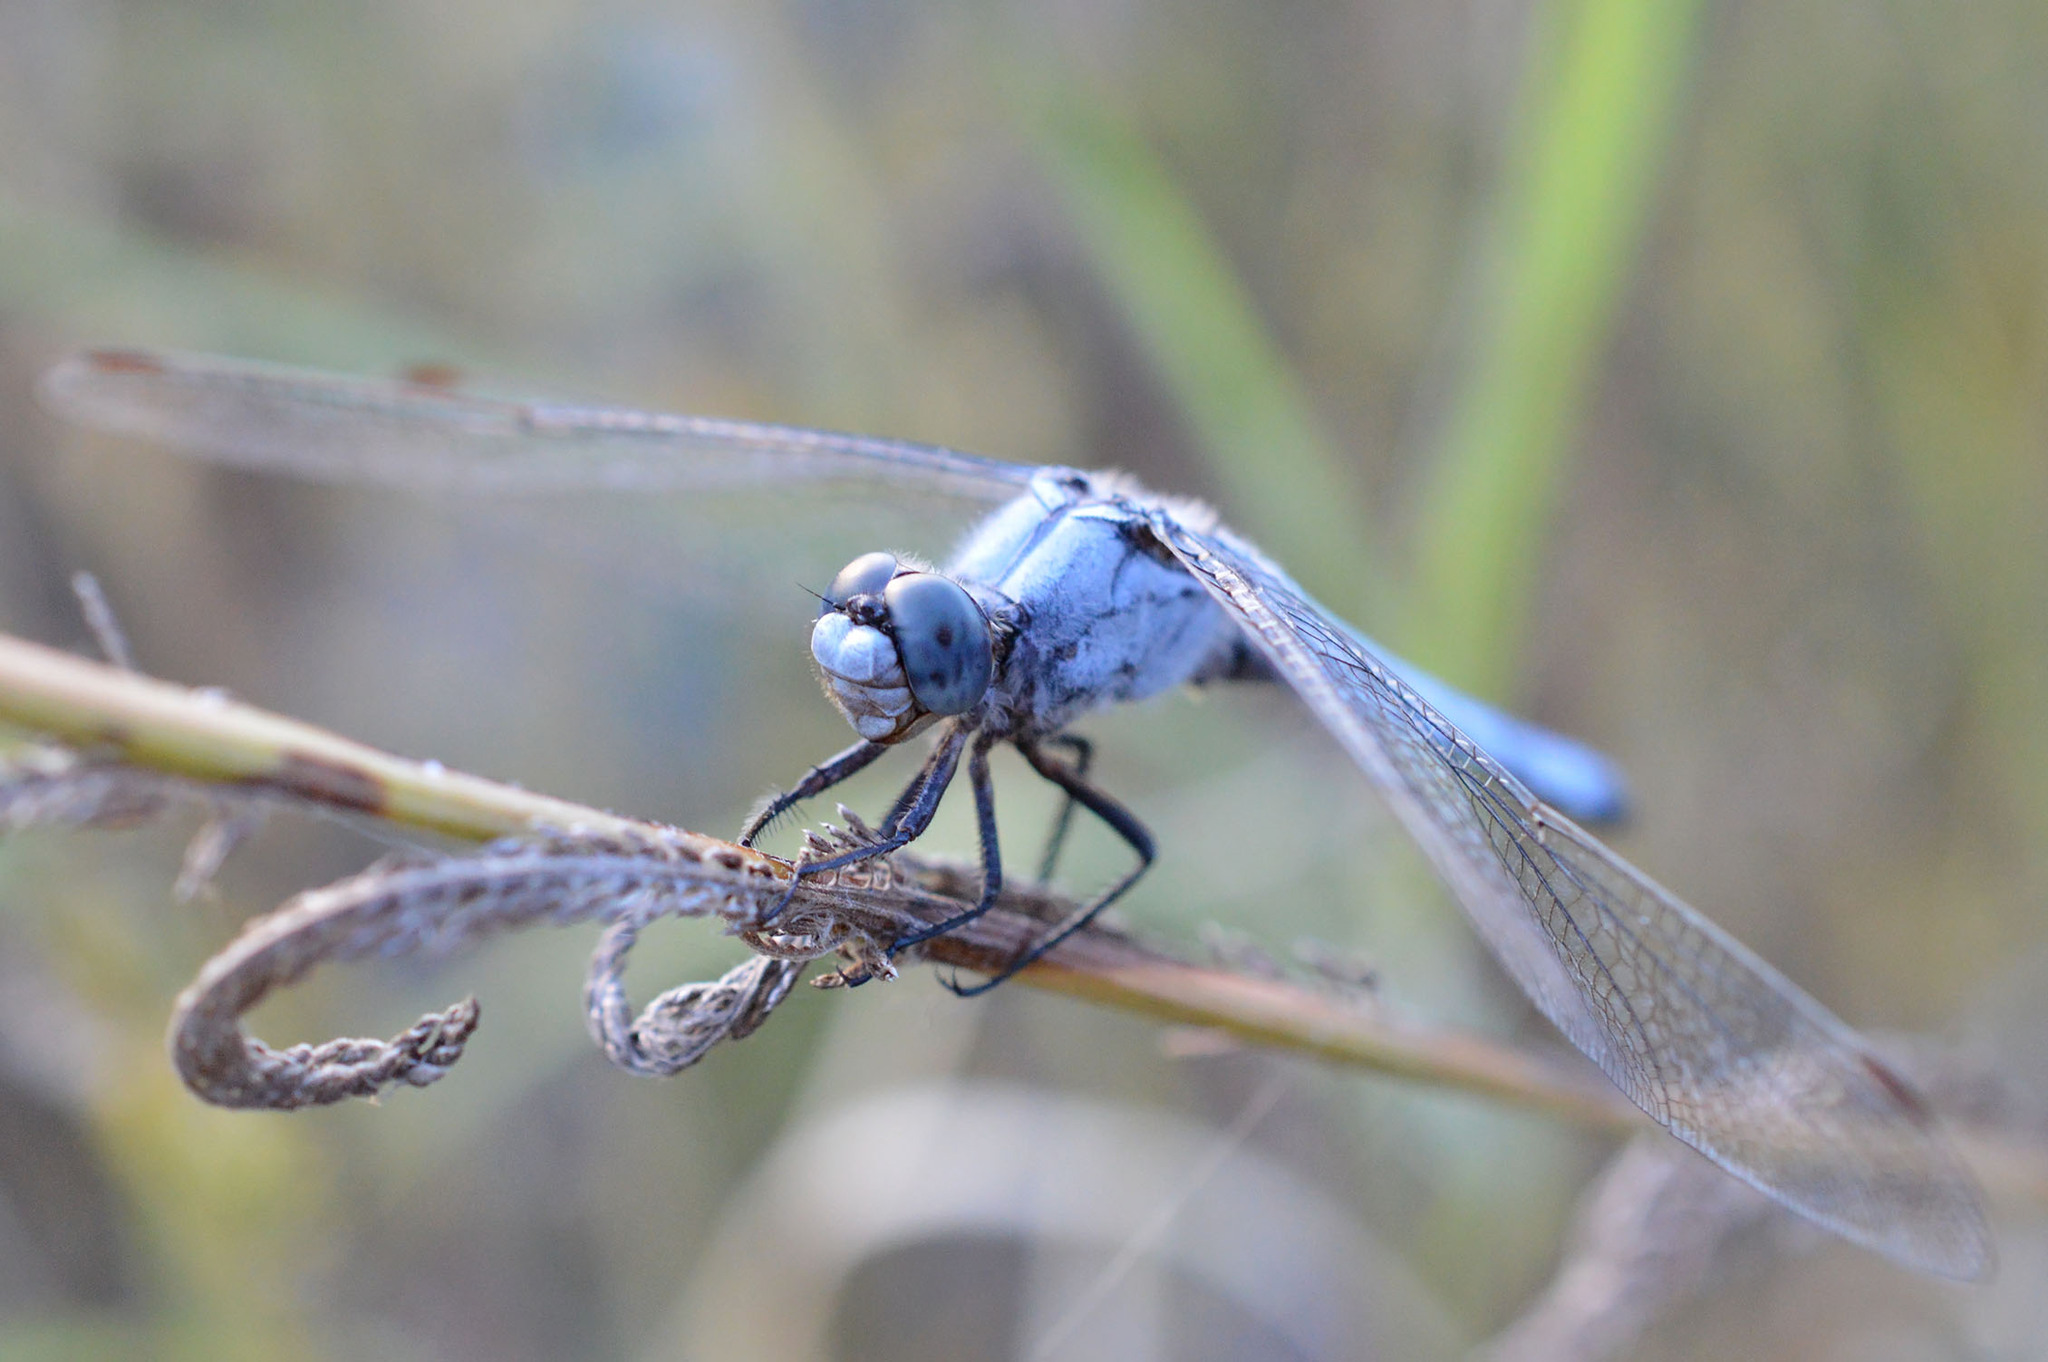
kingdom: Animalia
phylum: Arthropoda
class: Insecta
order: Odonata
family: Libellulidae
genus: Orthetrum
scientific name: Orthetrum brunneum
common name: Southern skimmer
